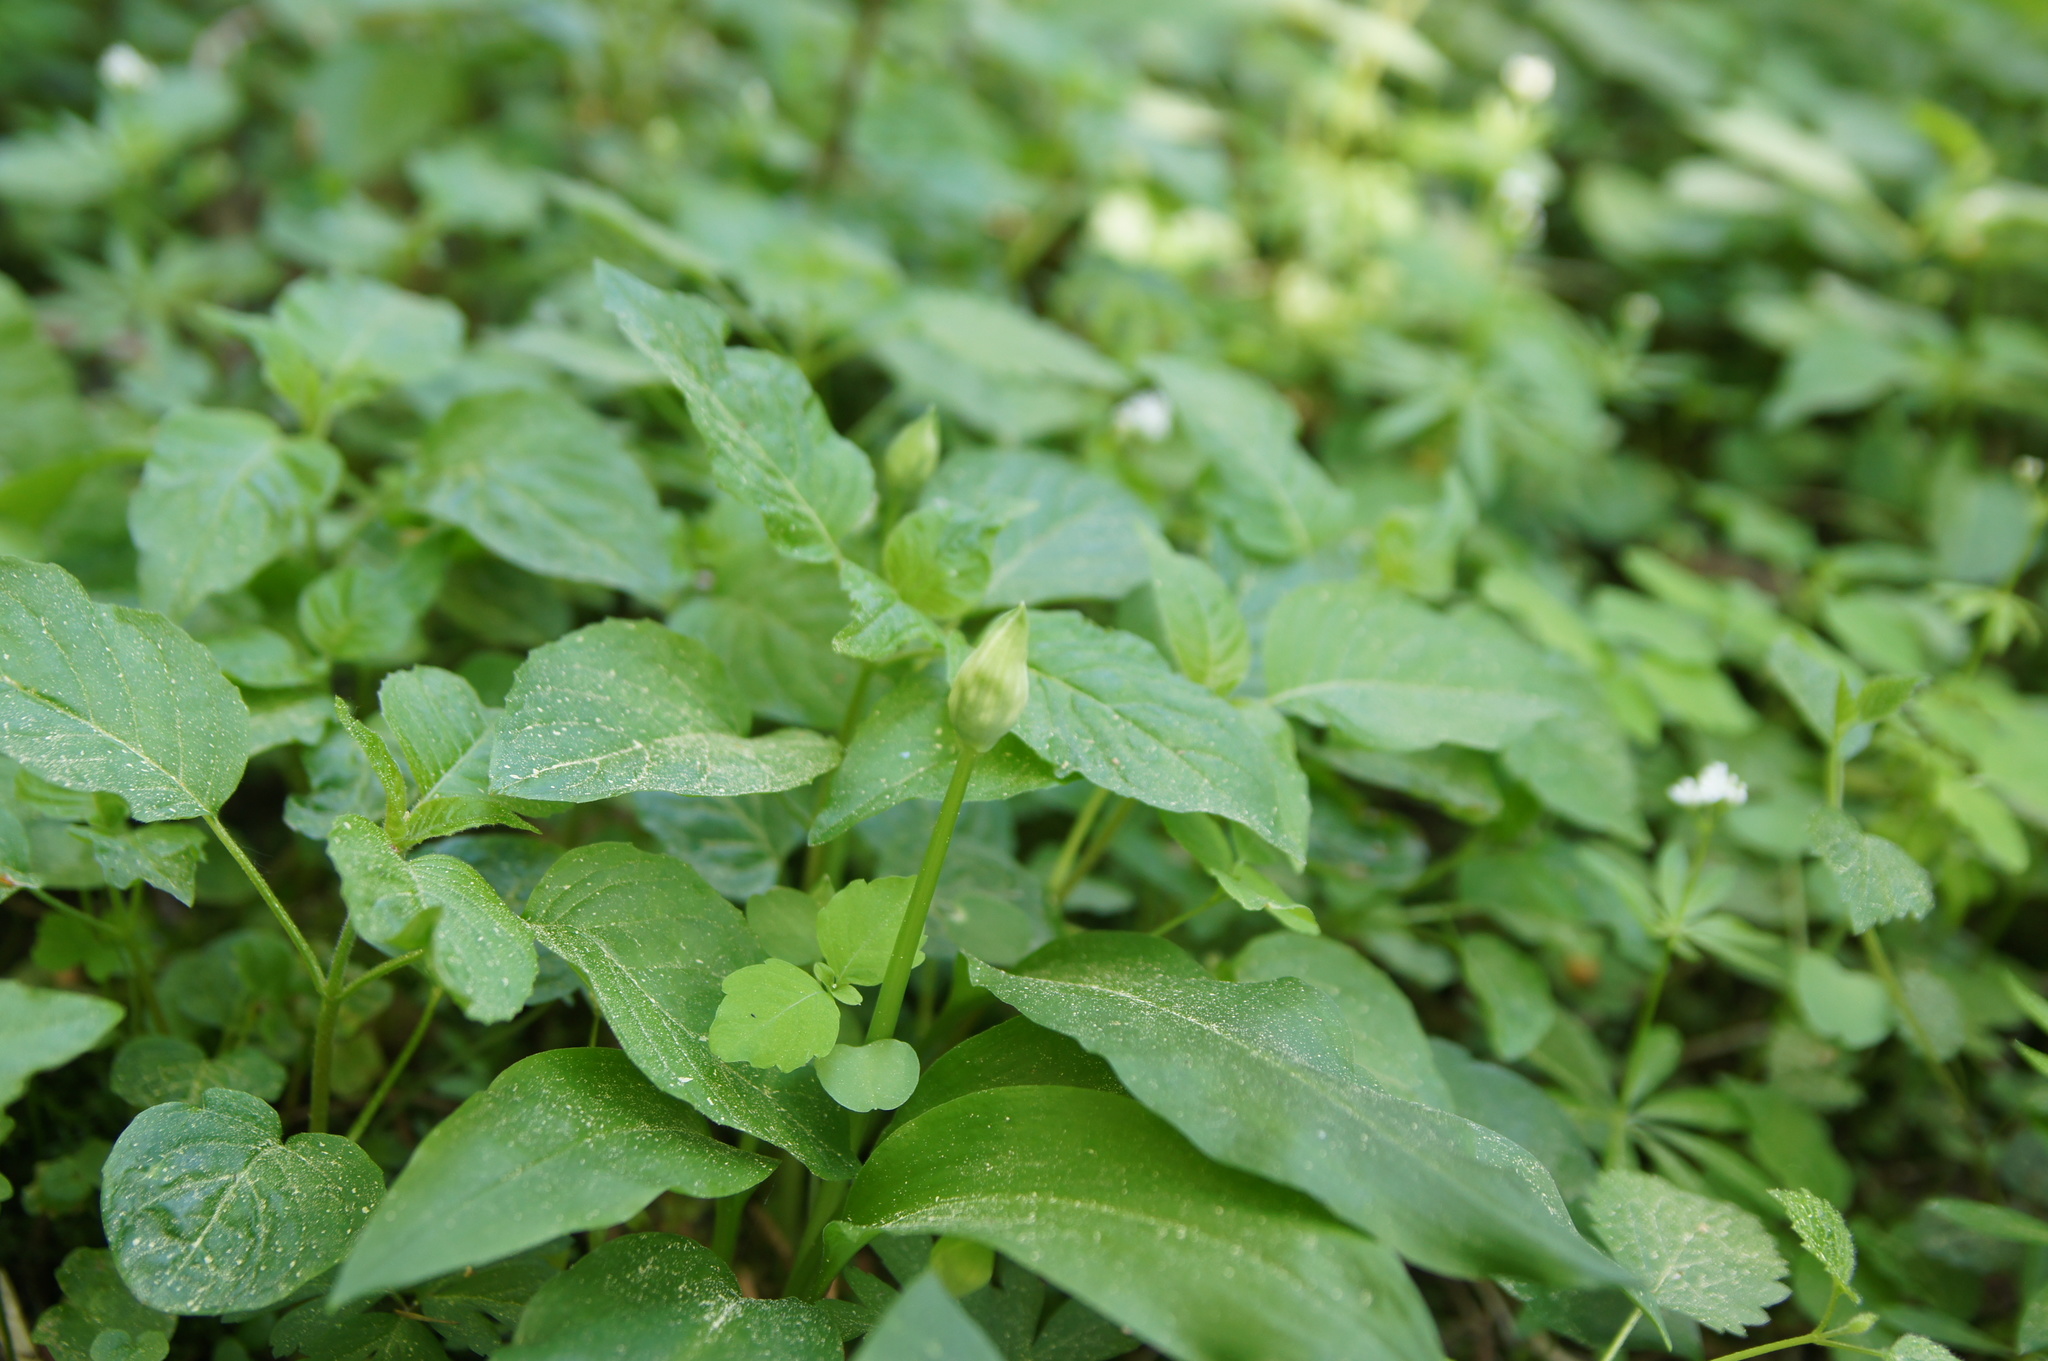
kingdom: Plantae
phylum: Tracheophyta
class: Liliopsida
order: Asparagales
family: Amaryllidaceae
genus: Allium
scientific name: Allium ursinum
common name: Ramsons
